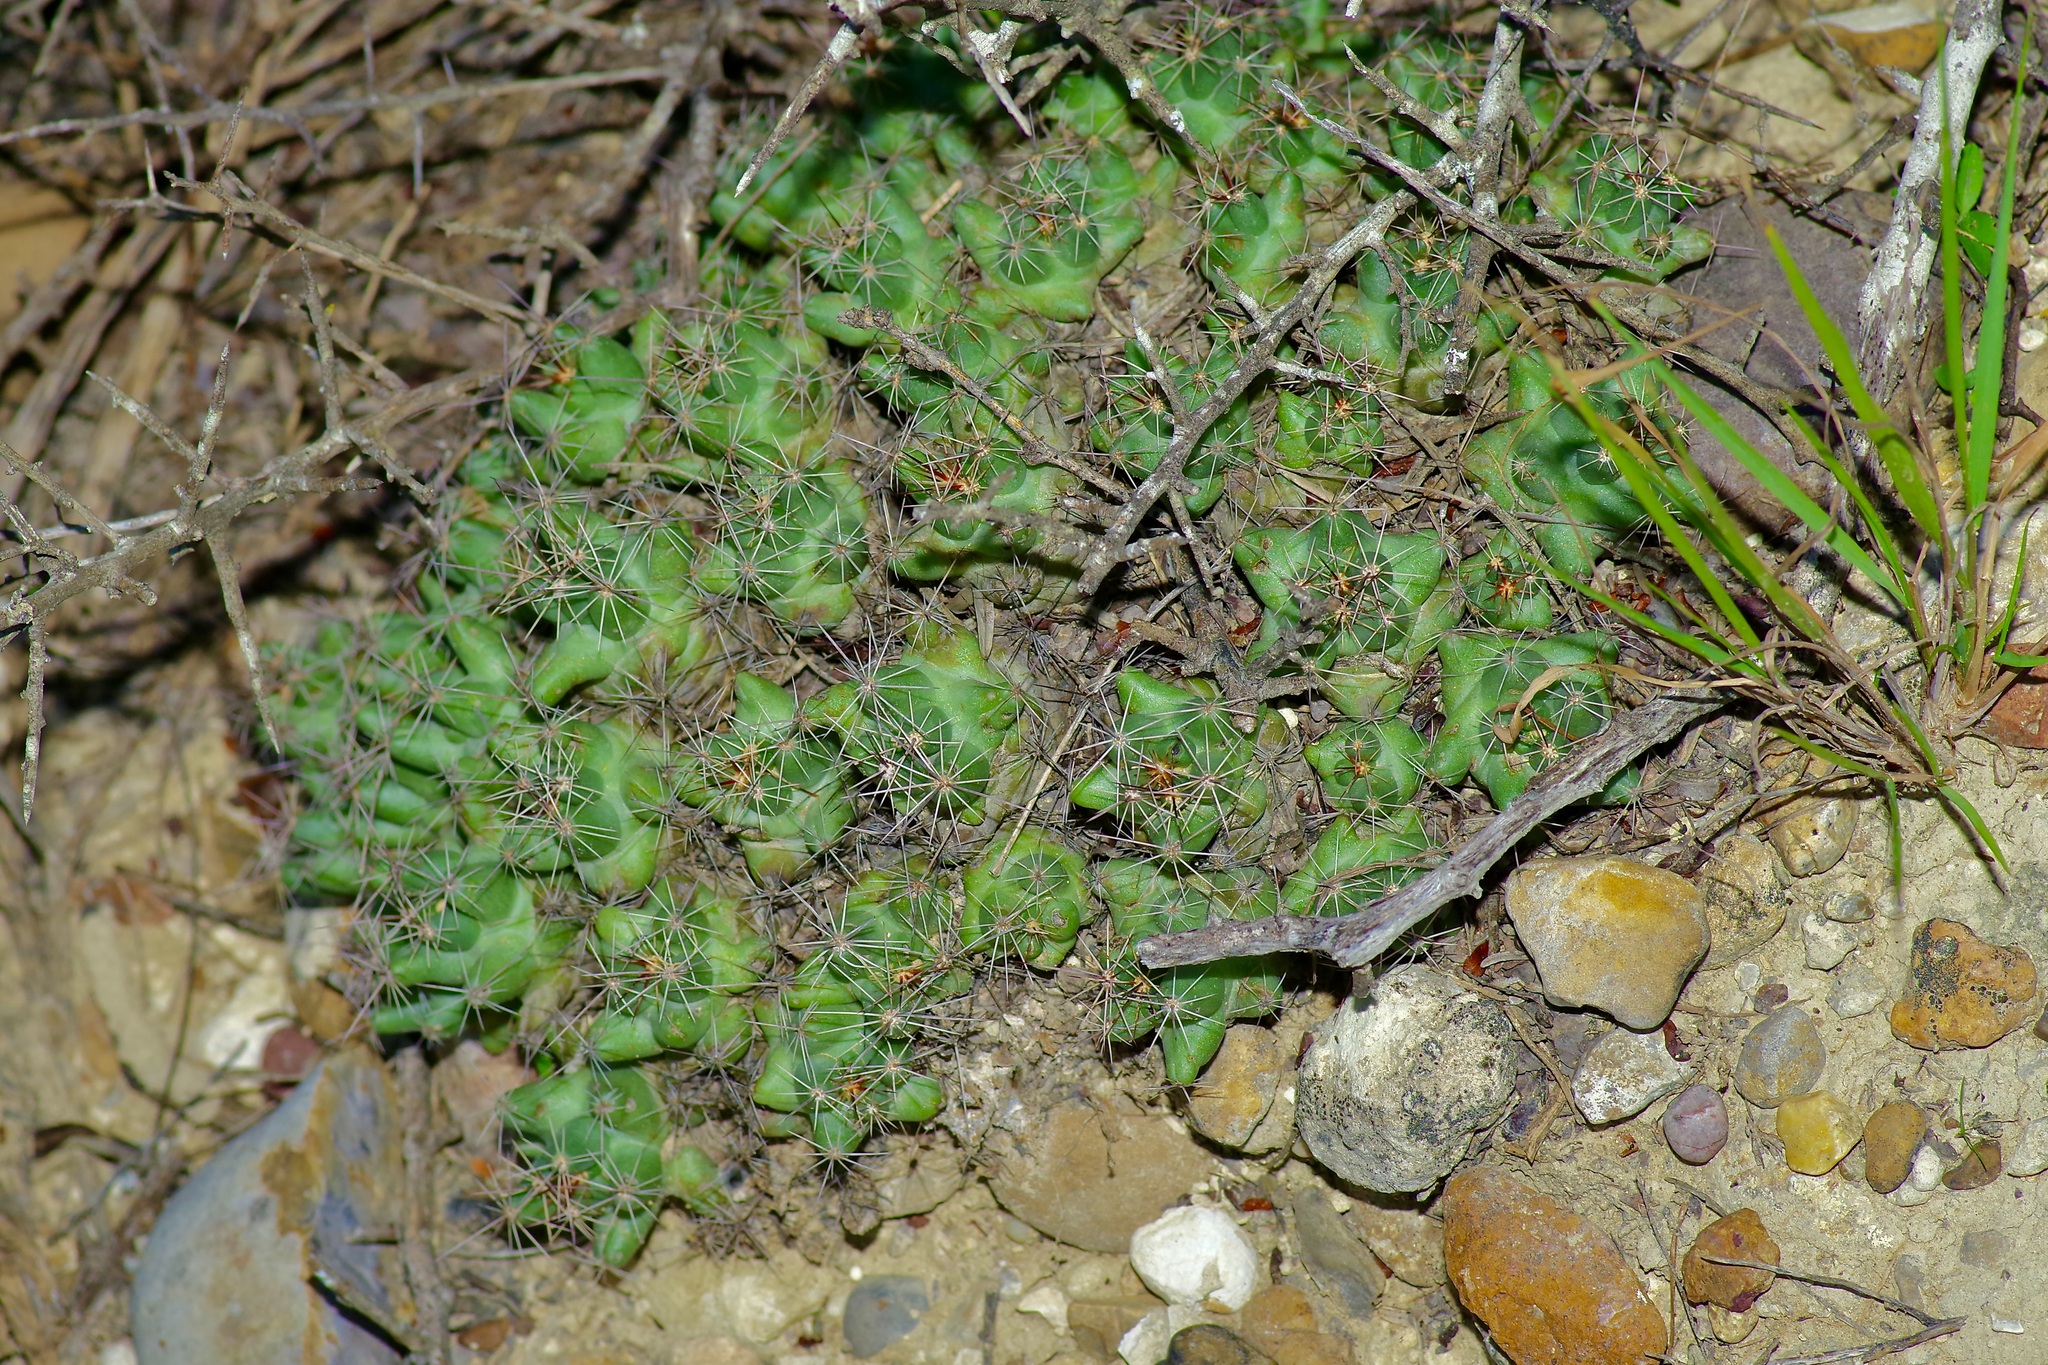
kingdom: Plantae
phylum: Tracheophyta
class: Magnoliopsida
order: Caryophyllales
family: Cactaceae
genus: Pelecyphora
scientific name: Pelecyphora macromeris
